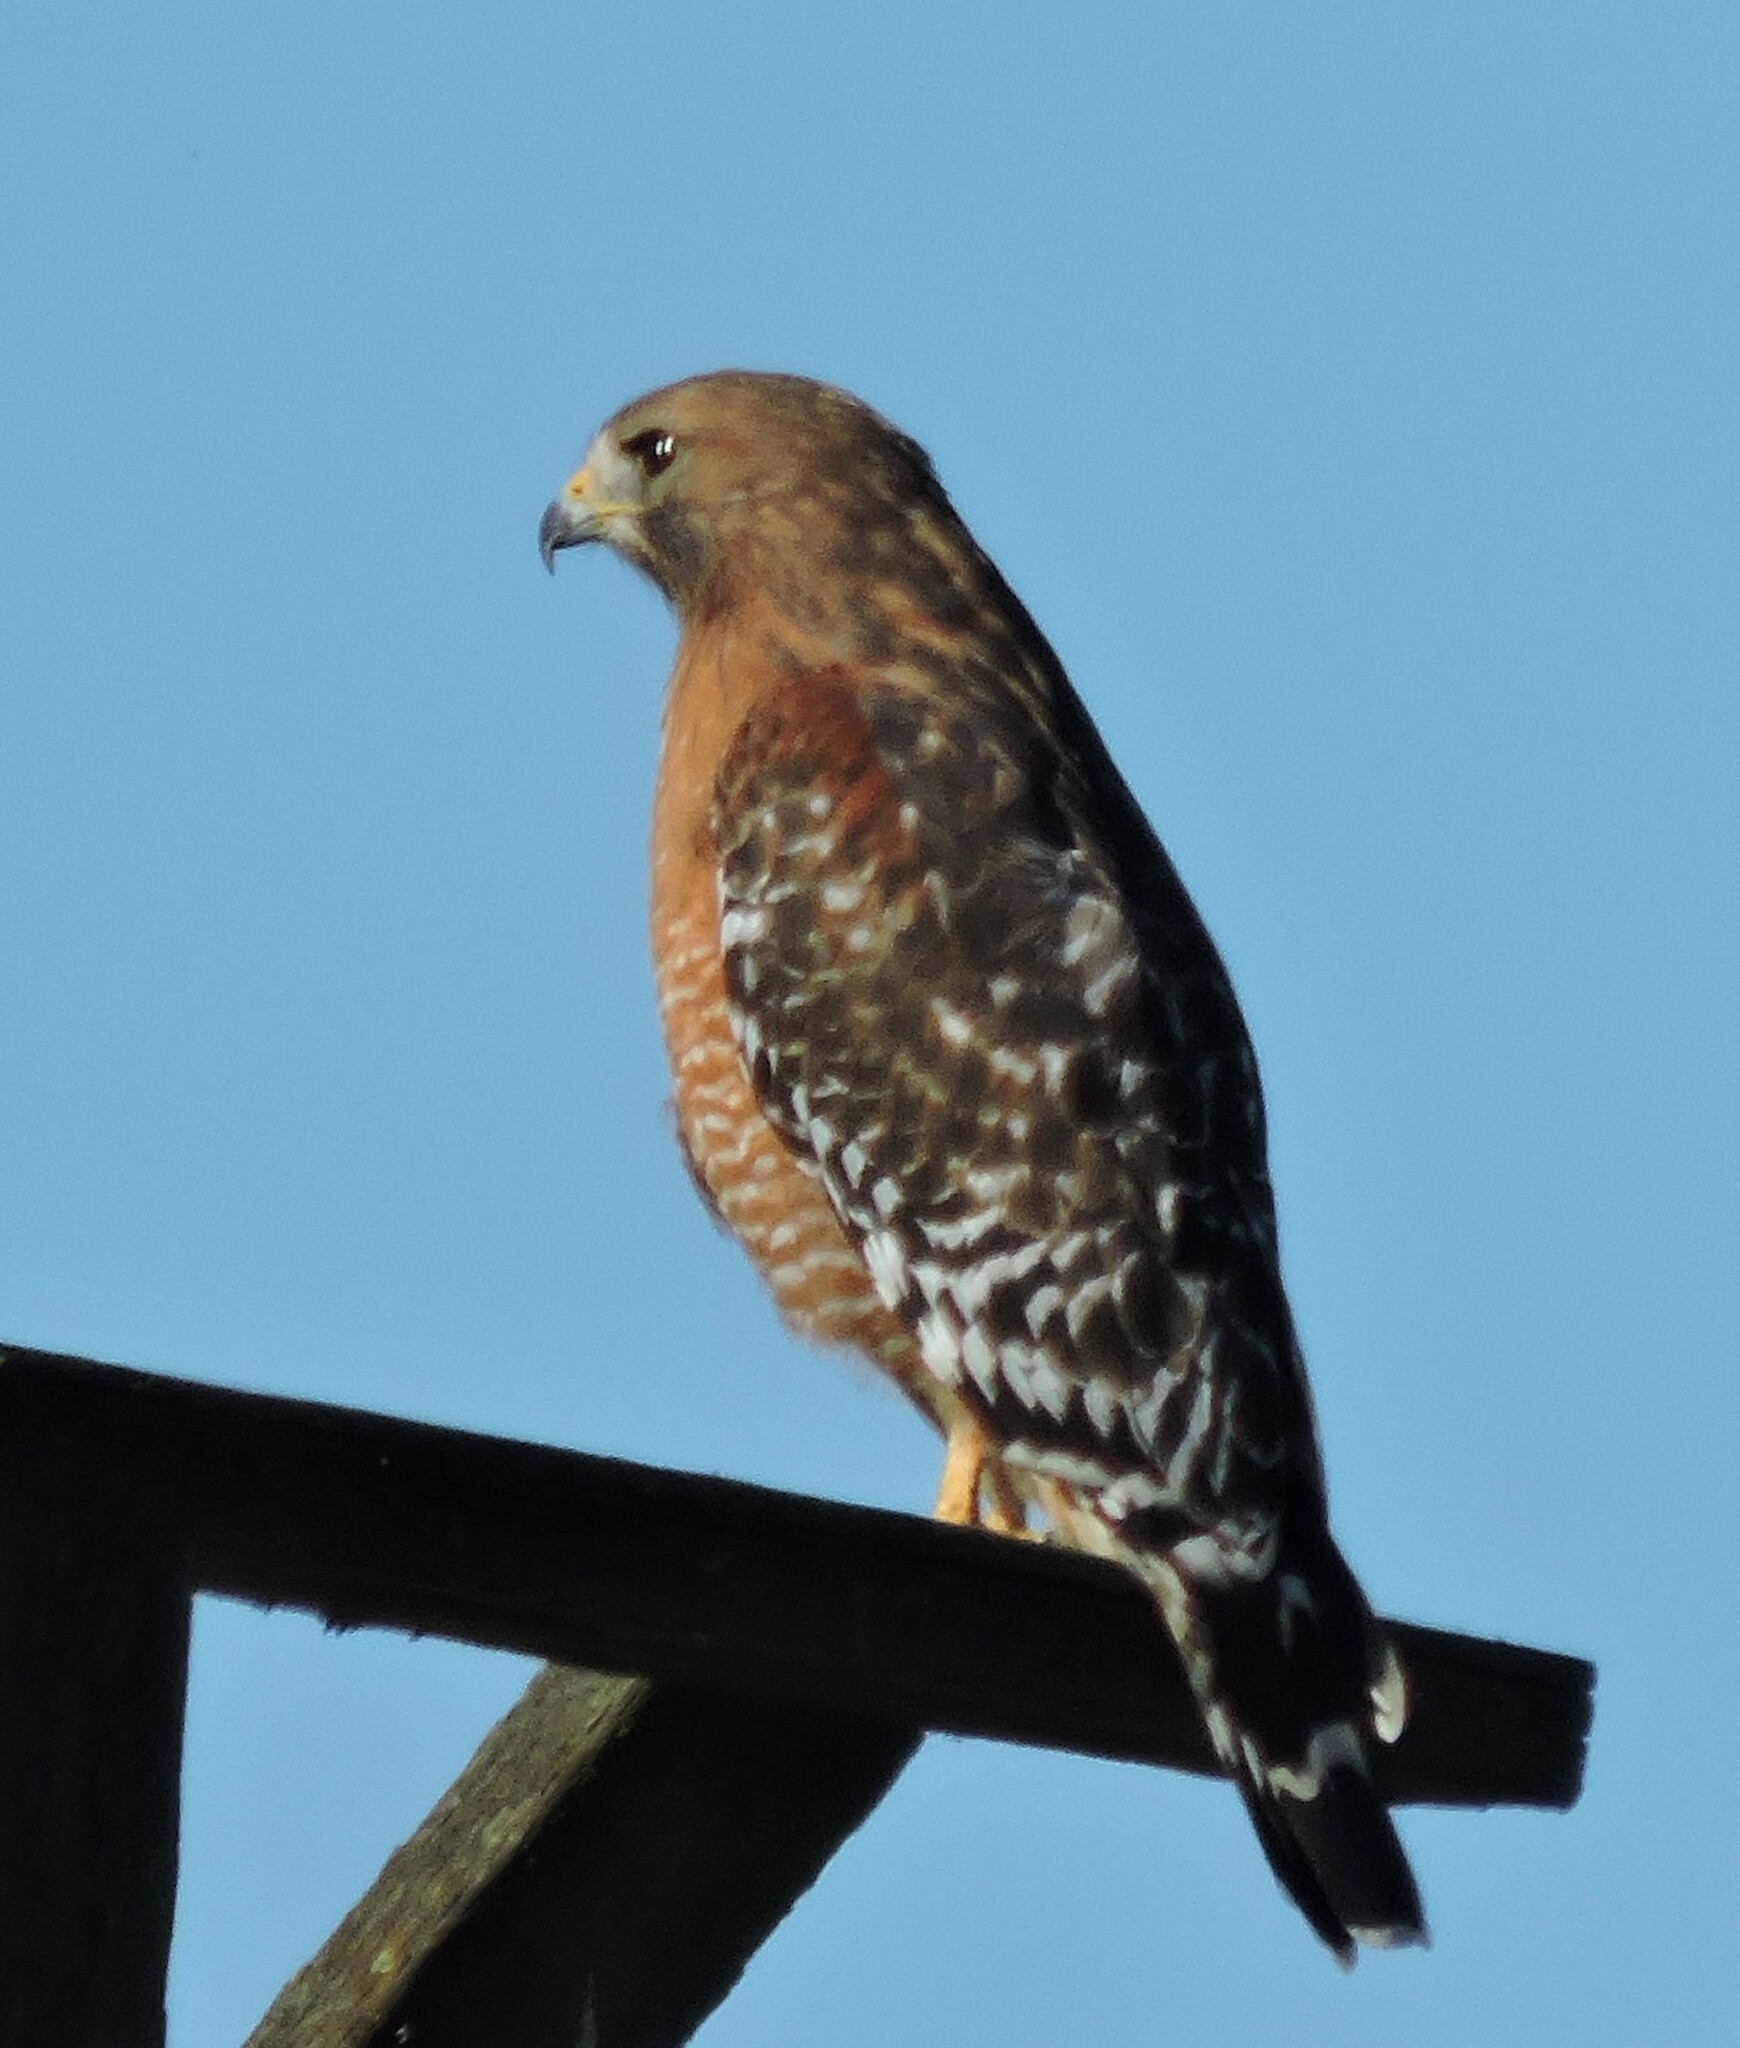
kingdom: Animalia
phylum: Chordata
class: Aves
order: Accipitriformes
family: Accipitridae
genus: Buteo
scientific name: Buteo lineatus
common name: Red-shouldered hawk
